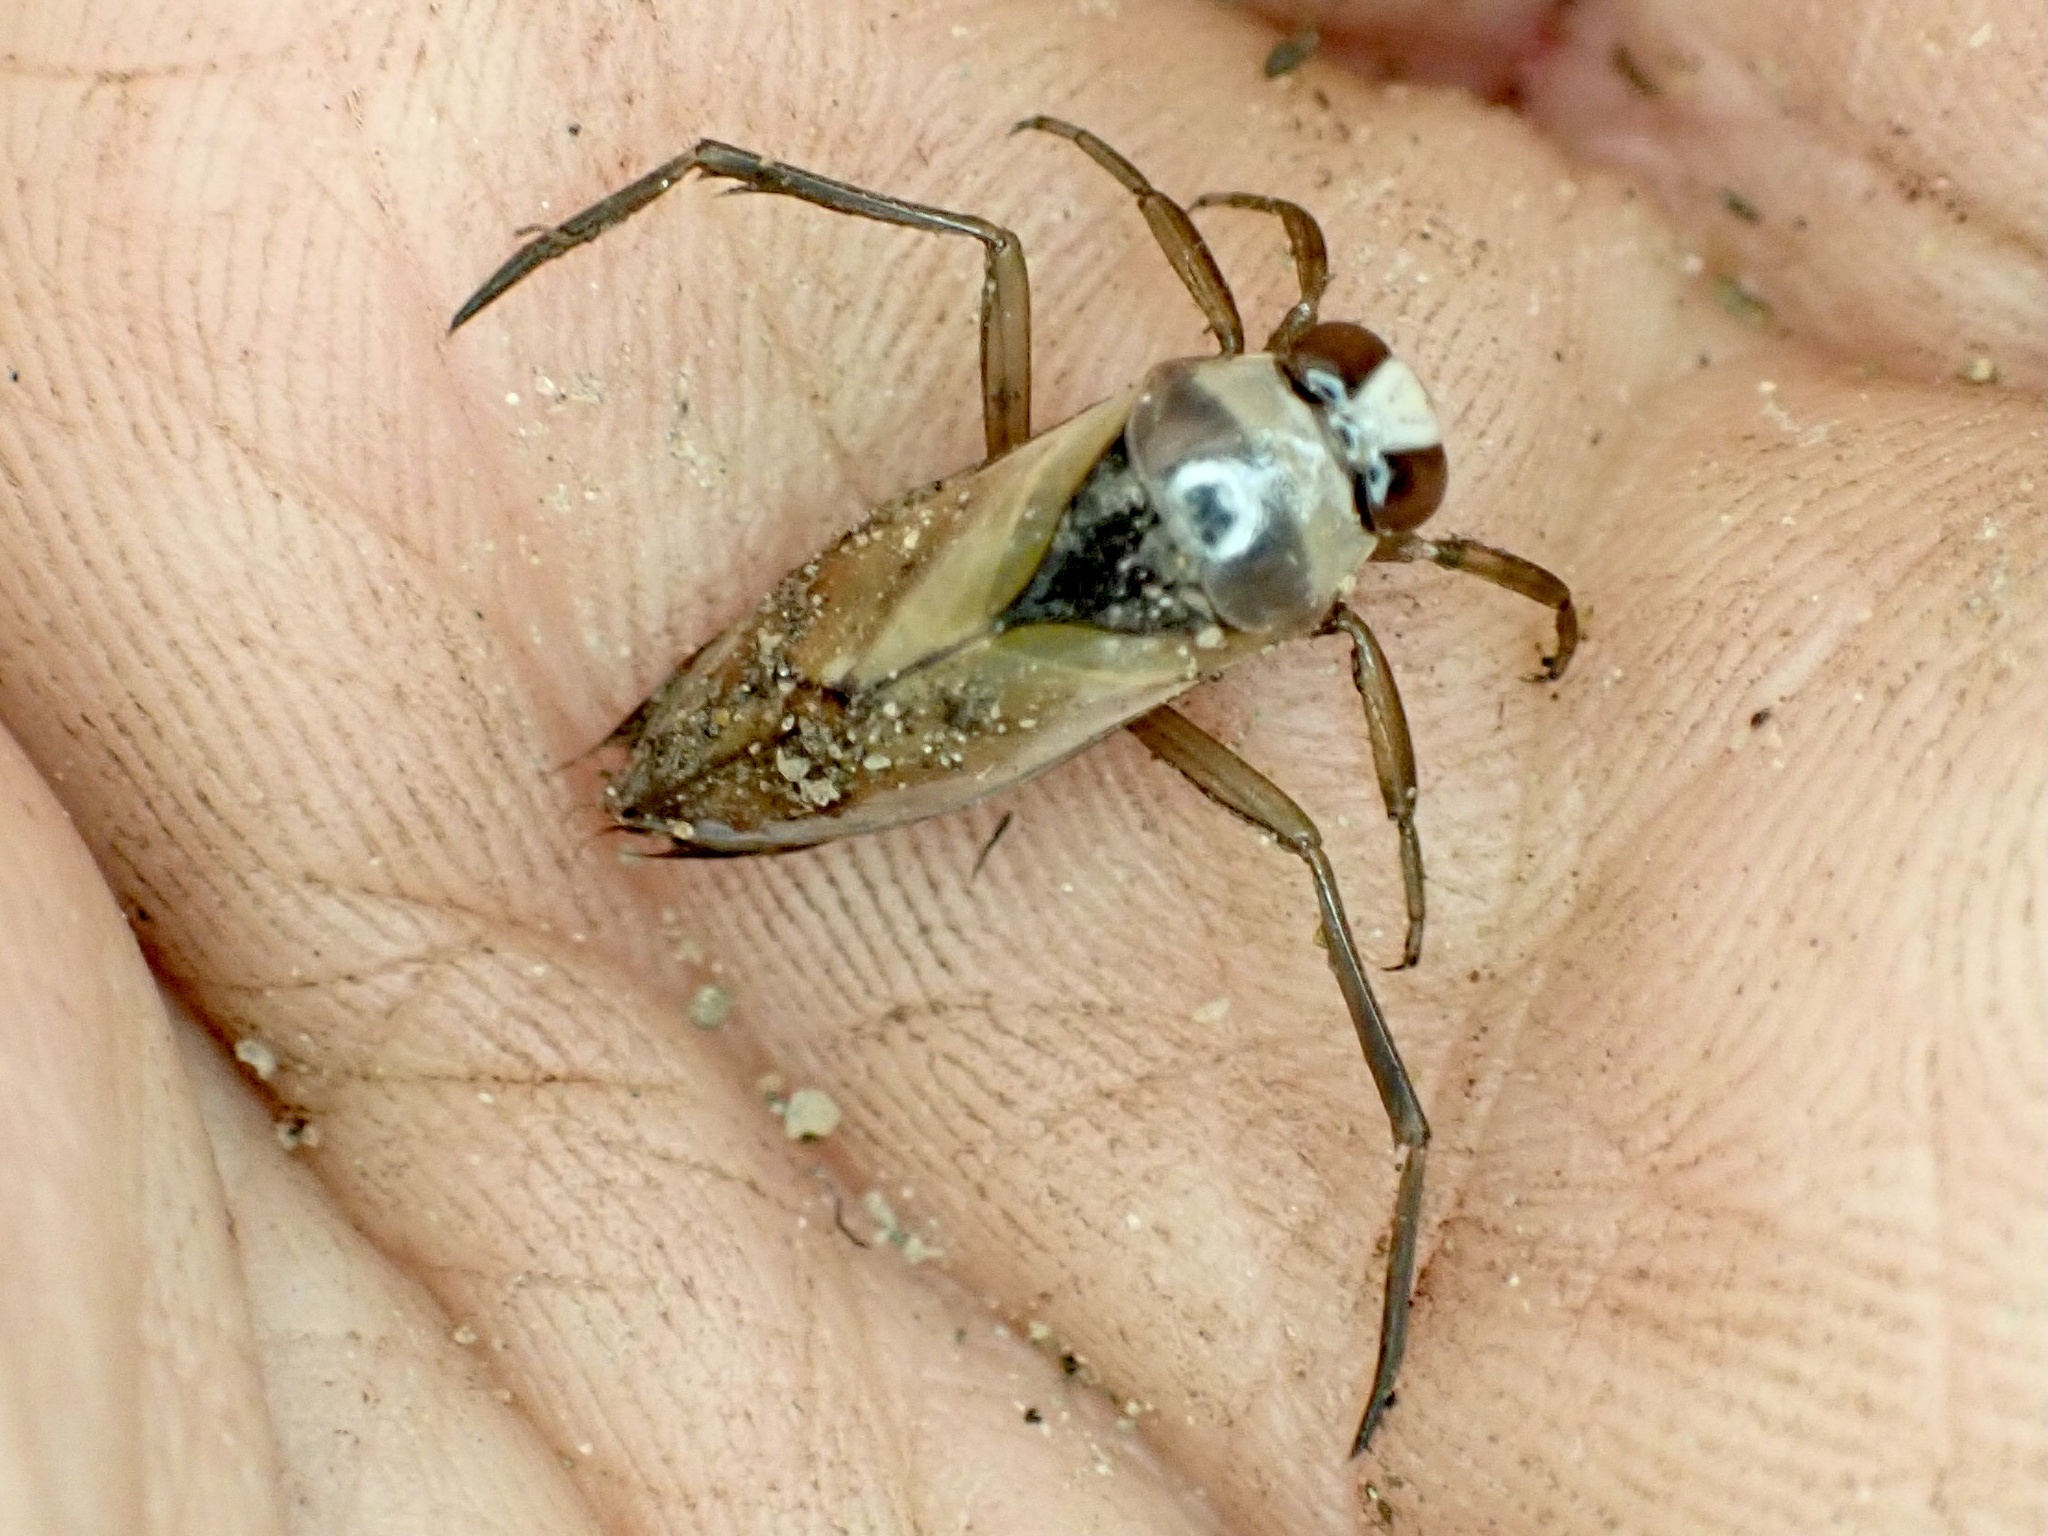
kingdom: Animalia
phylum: Arthropoda
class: Insecta
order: Hemiptera
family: Notonectidae
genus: Notonecta
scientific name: Notonecta glauca
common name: Common water-boatman
